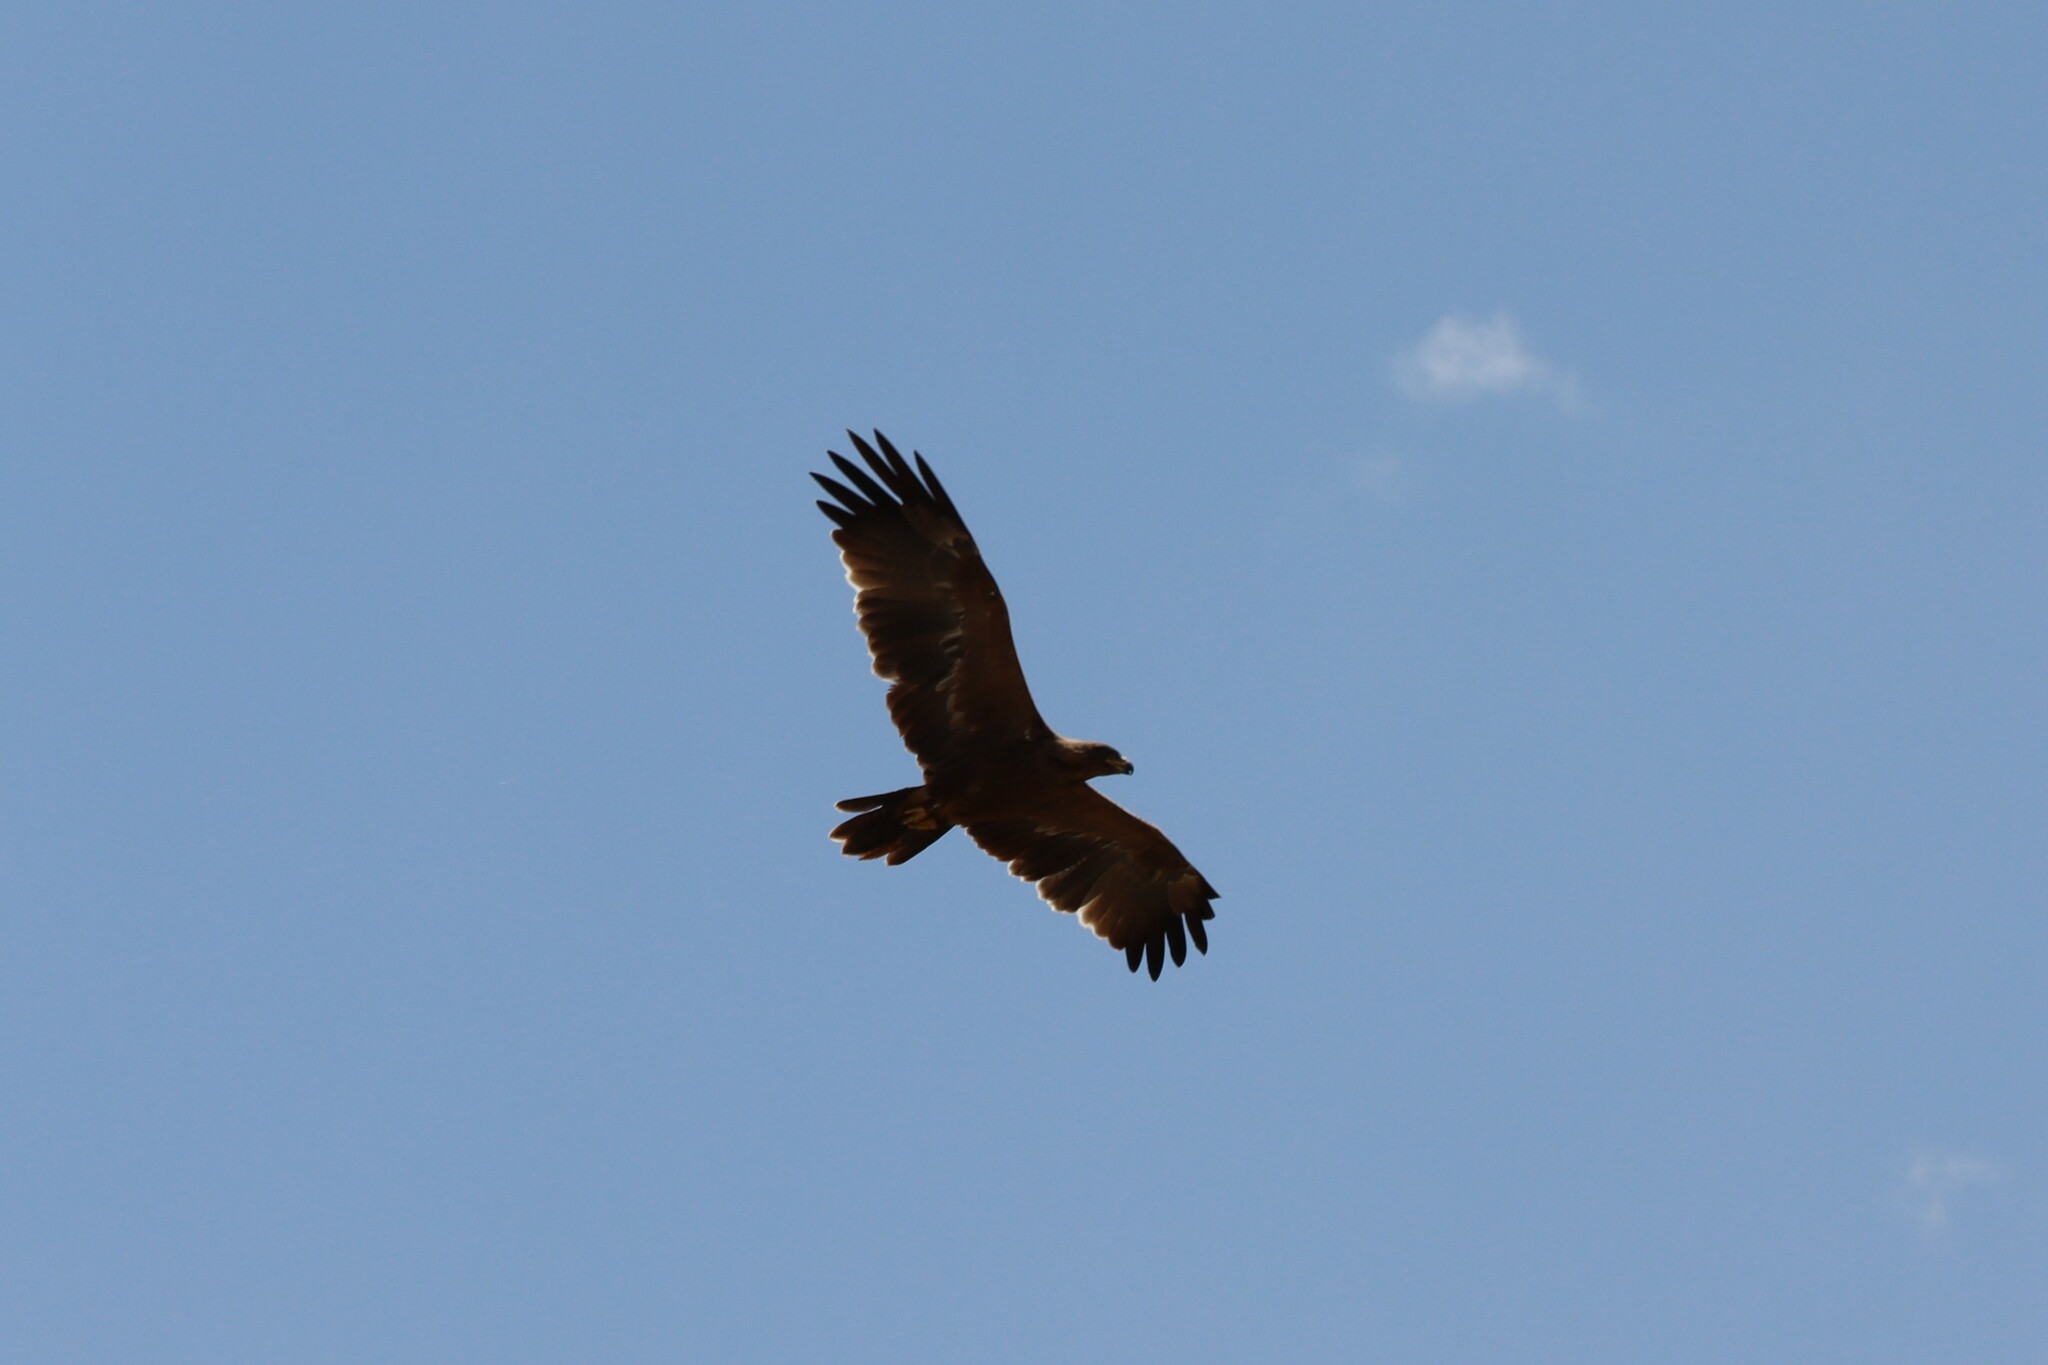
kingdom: Animalia
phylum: Chordata
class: Aves
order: Accipitriformes
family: Accipitridae
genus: Aquila
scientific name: Aquila rapax
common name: Tawny eagle
